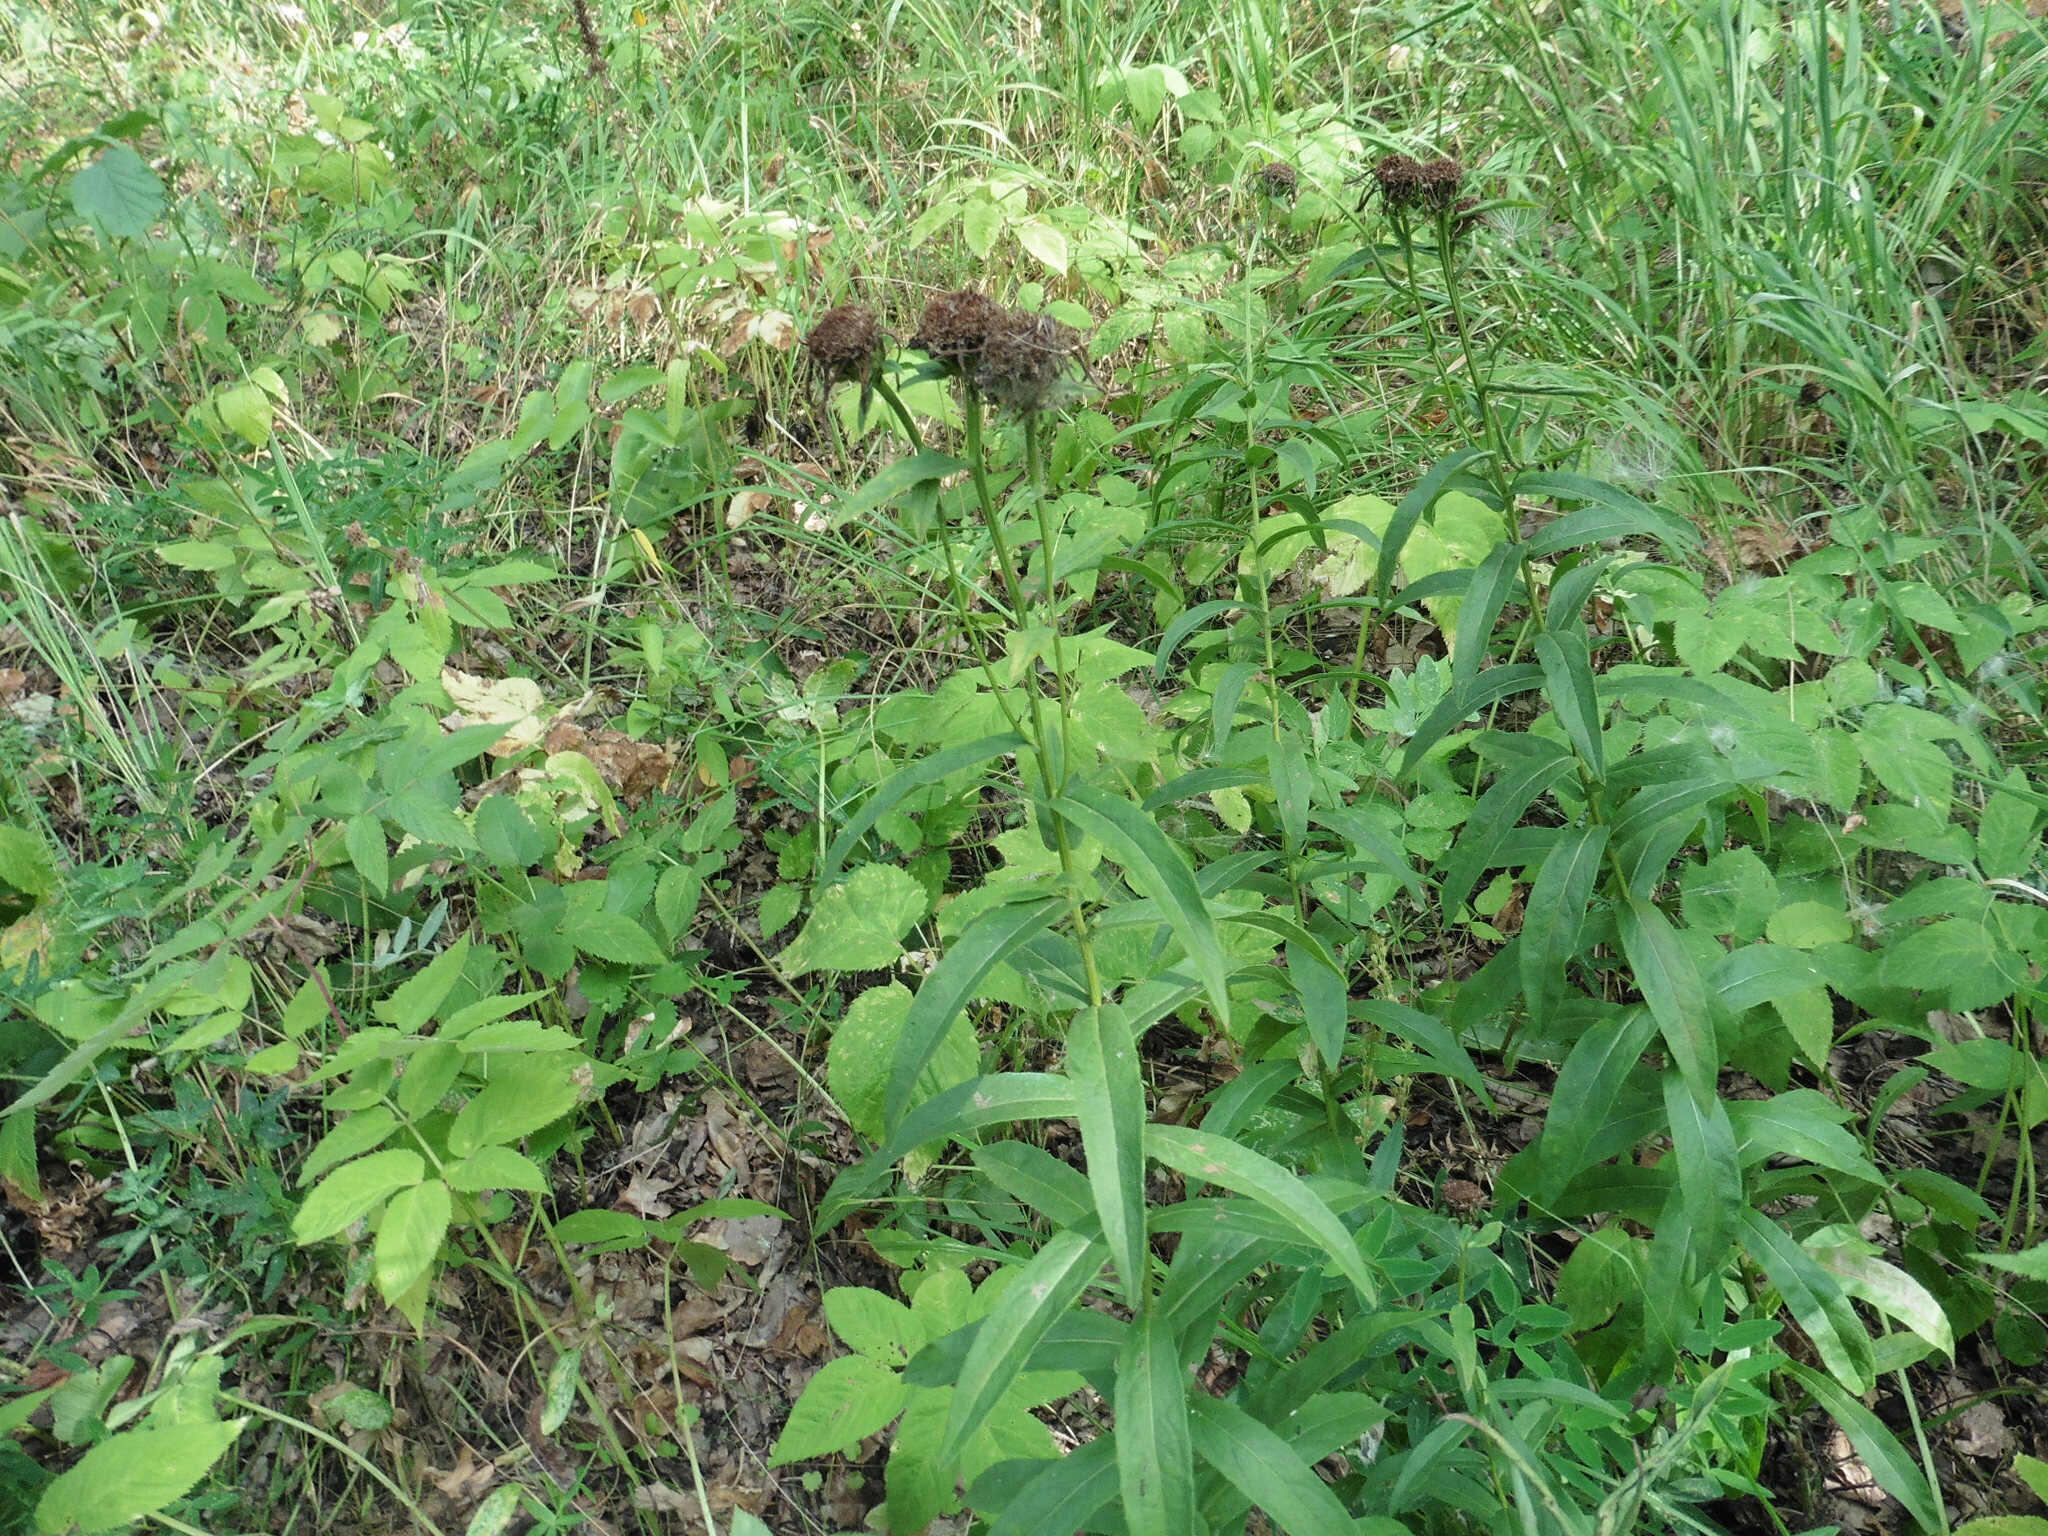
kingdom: Plantae
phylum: Tracheophyta
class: Magnoliopsida
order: Asterales
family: Asteraceae
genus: Pentanema
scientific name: Pentanema salicinum
